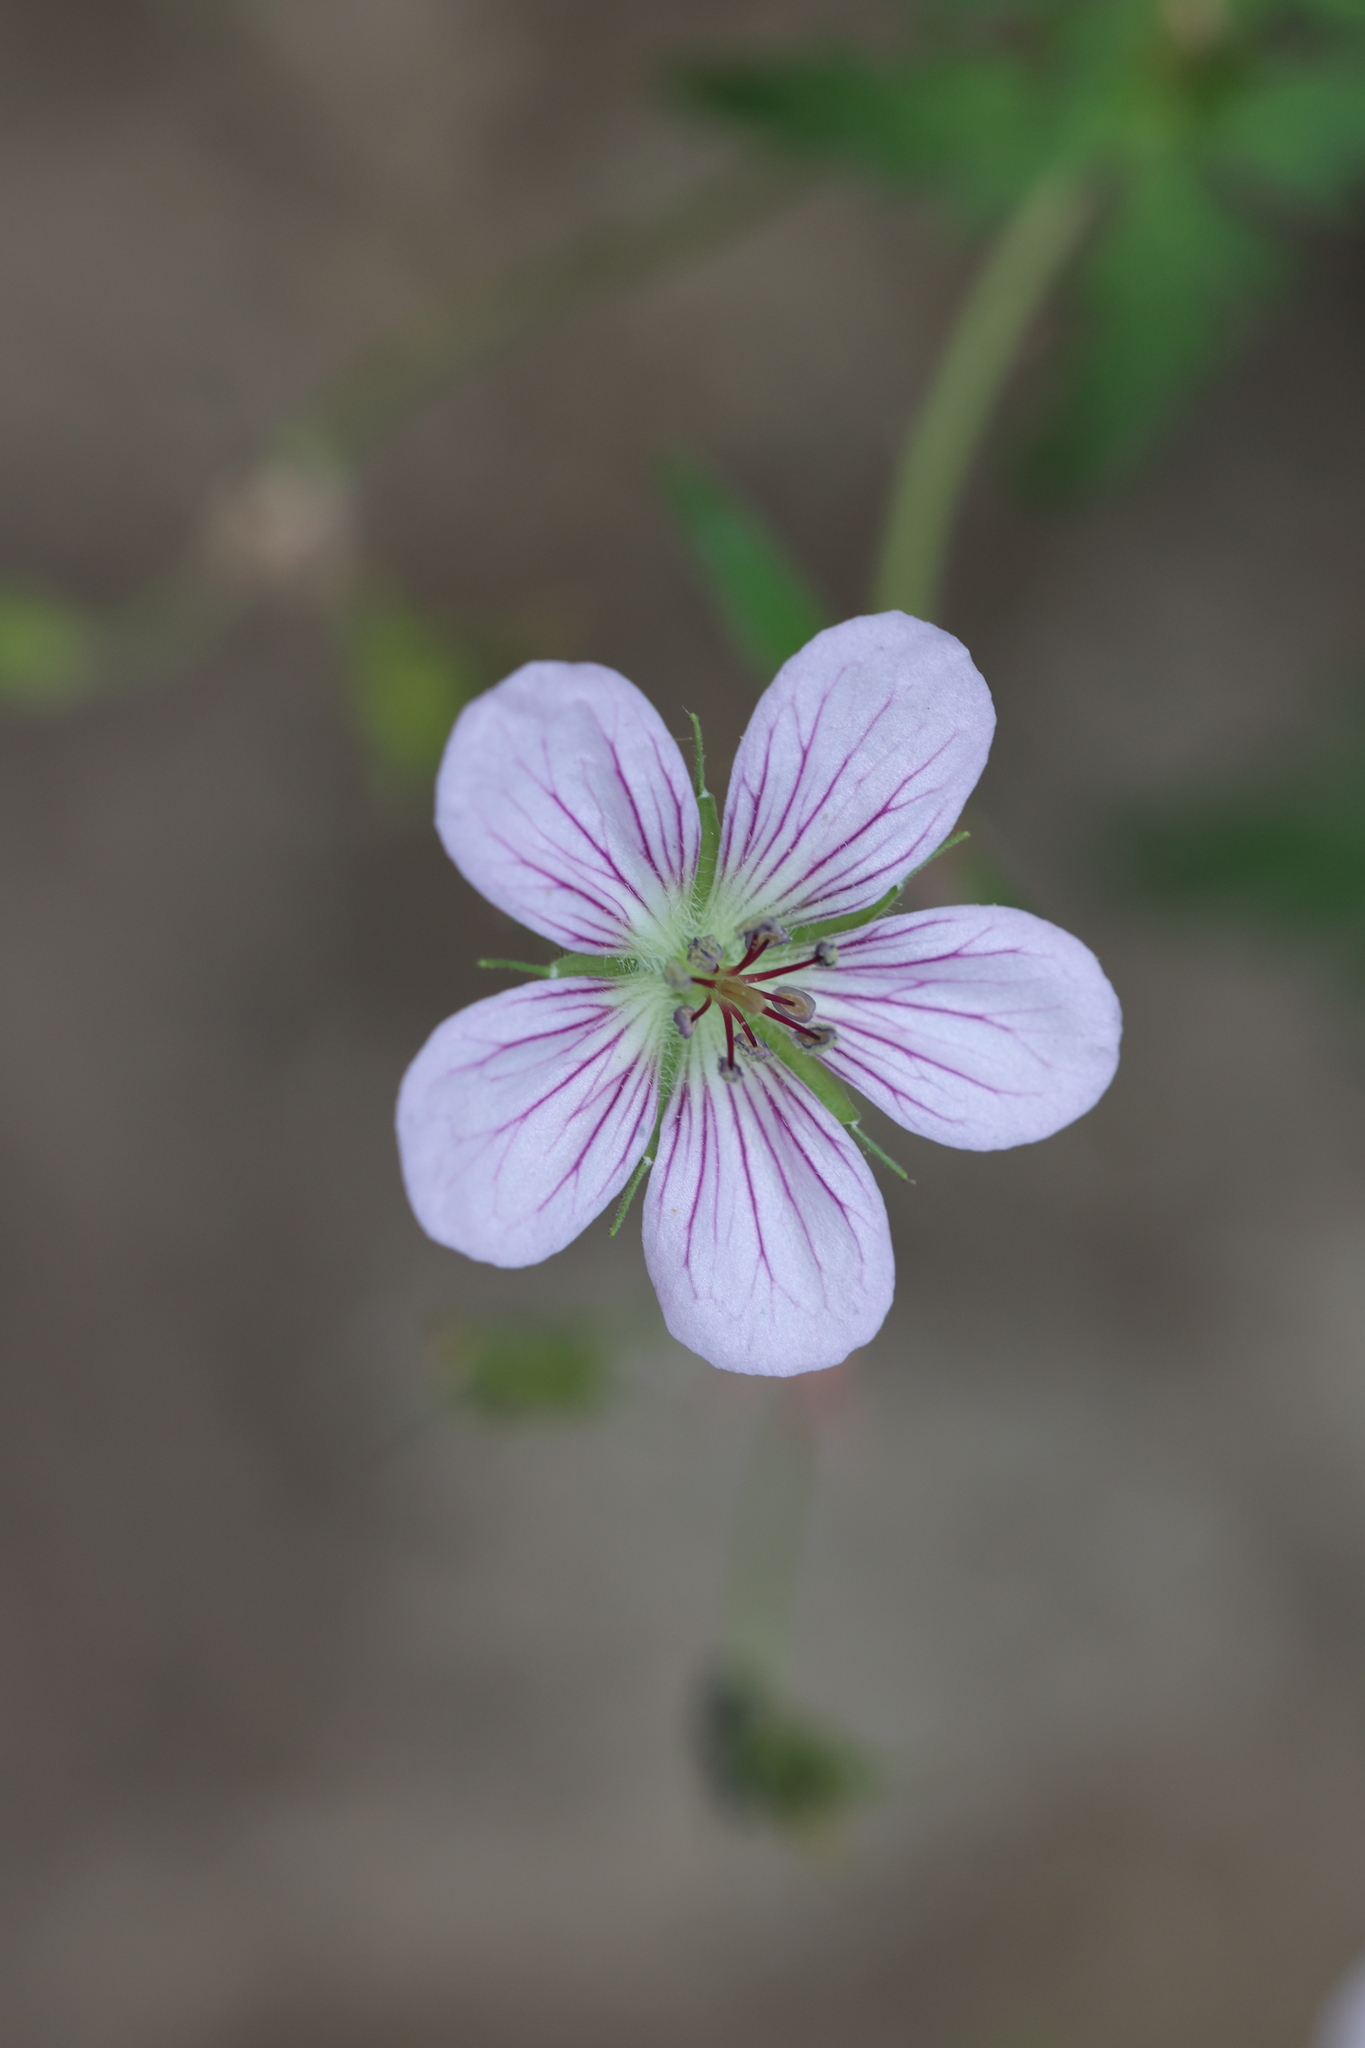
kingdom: Plantae
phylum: Tracheophyta
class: Magnoliopsida
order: Geraniales
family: Geraniaceae
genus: Geranium
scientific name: Geranium richardsonii
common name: Richardson's crane's-bill
